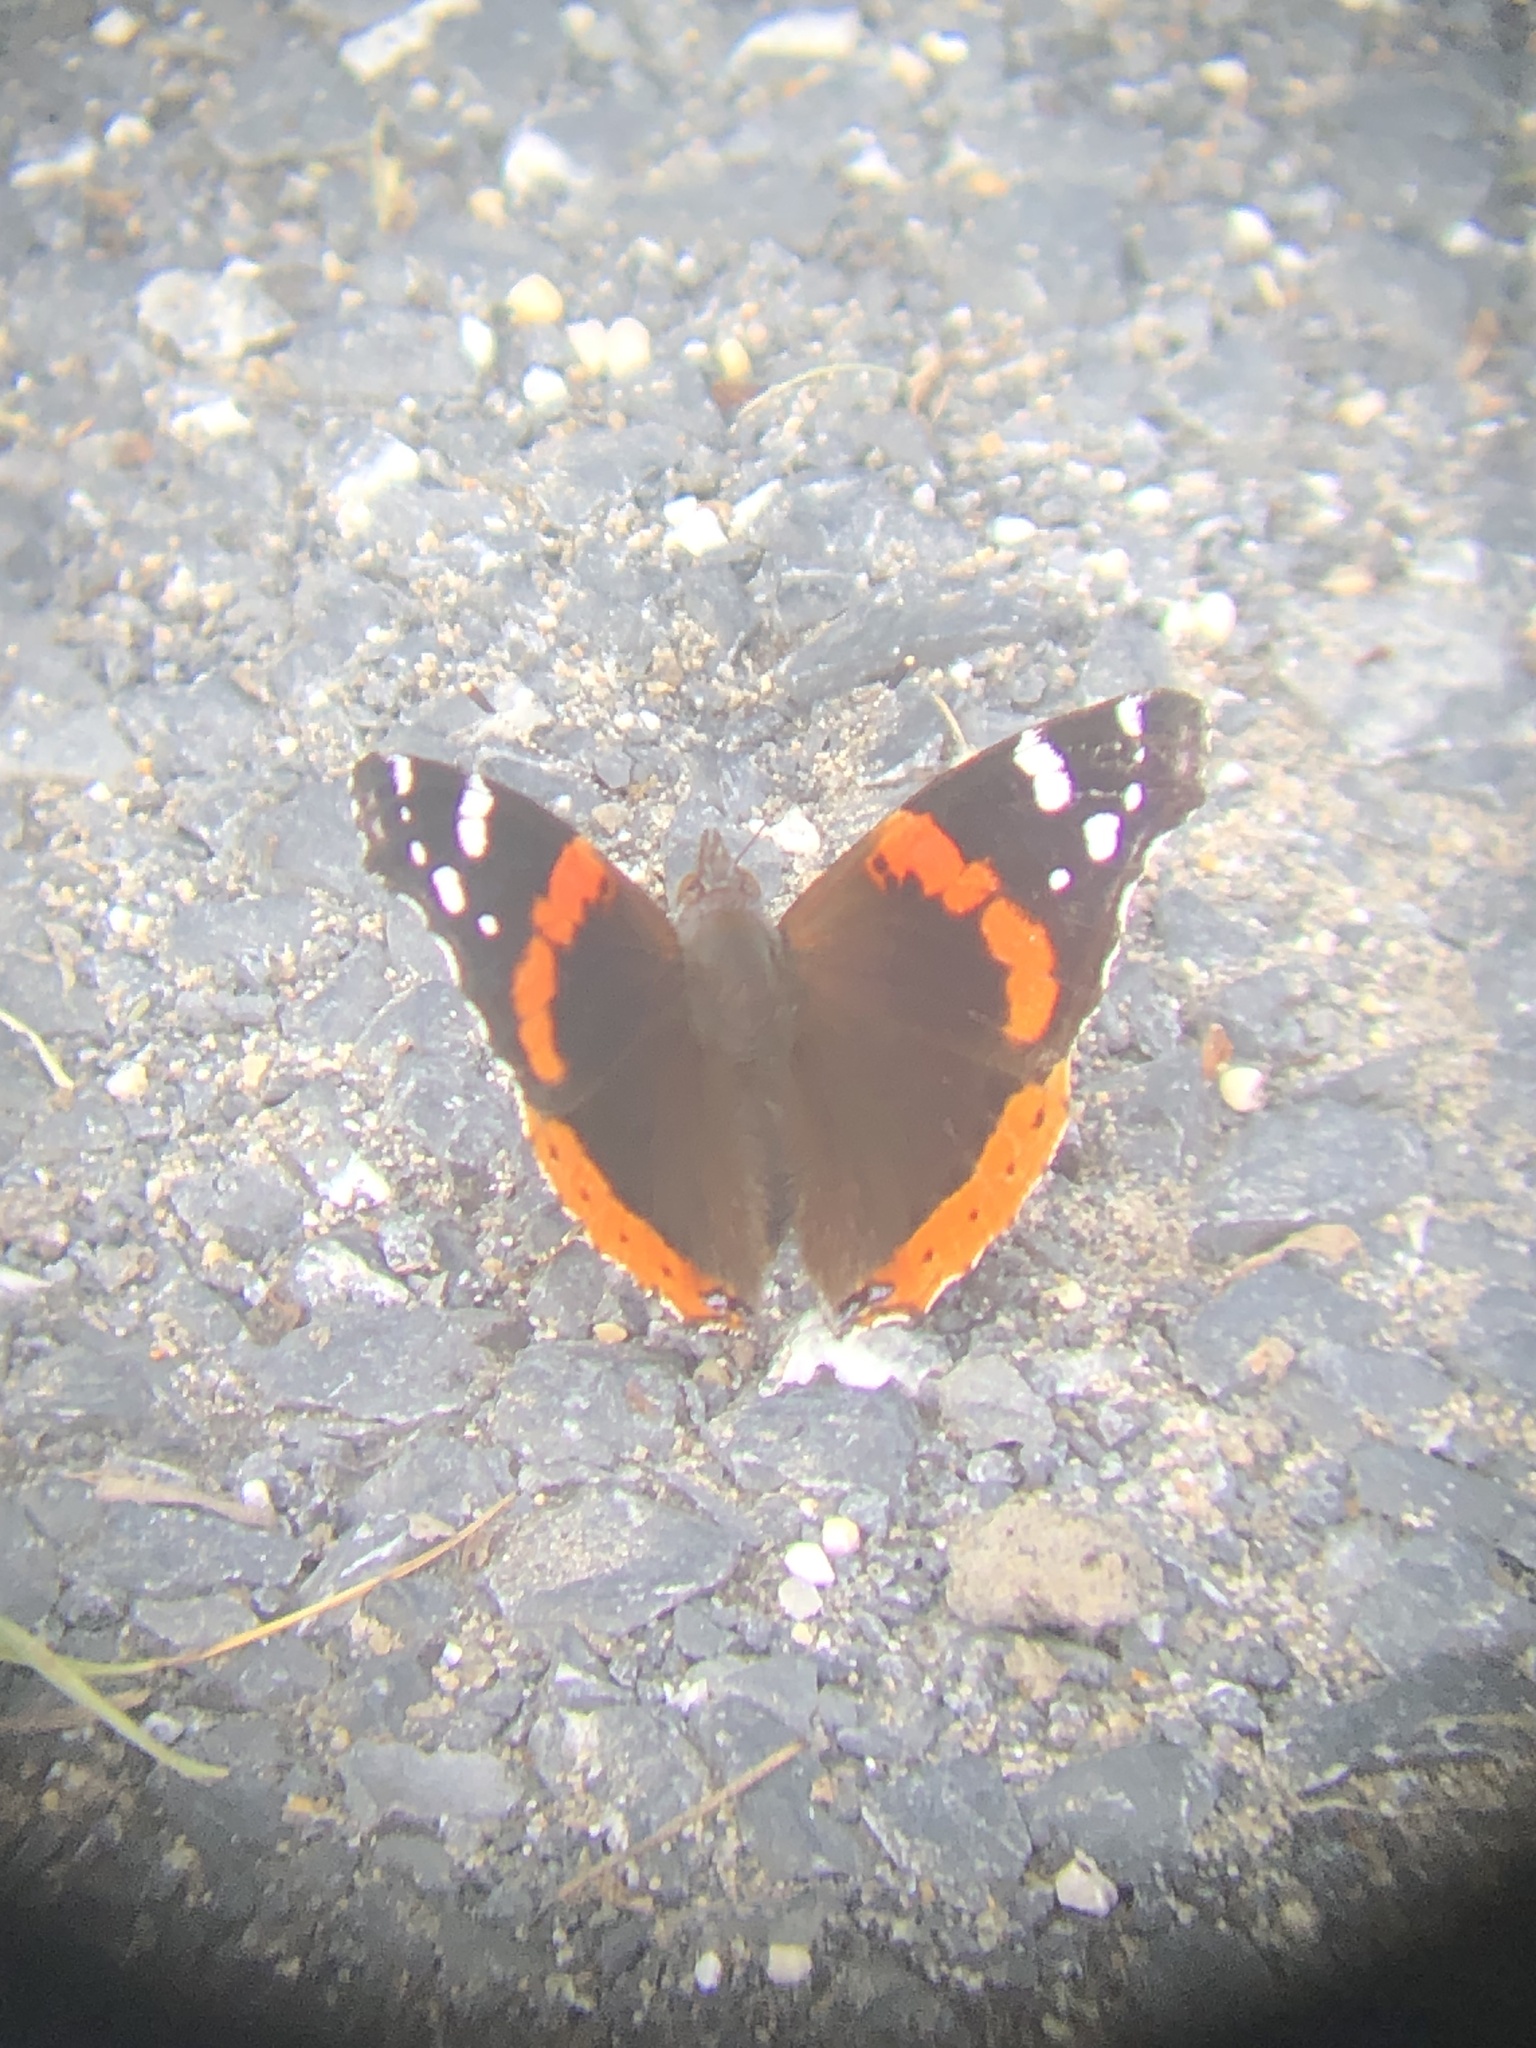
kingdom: Animalia
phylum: Arthropoda
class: Insecta
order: Lepidoptera
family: Nymphalidae
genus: Vanessa
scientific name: Vanessa atalanta
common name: Red admiral
